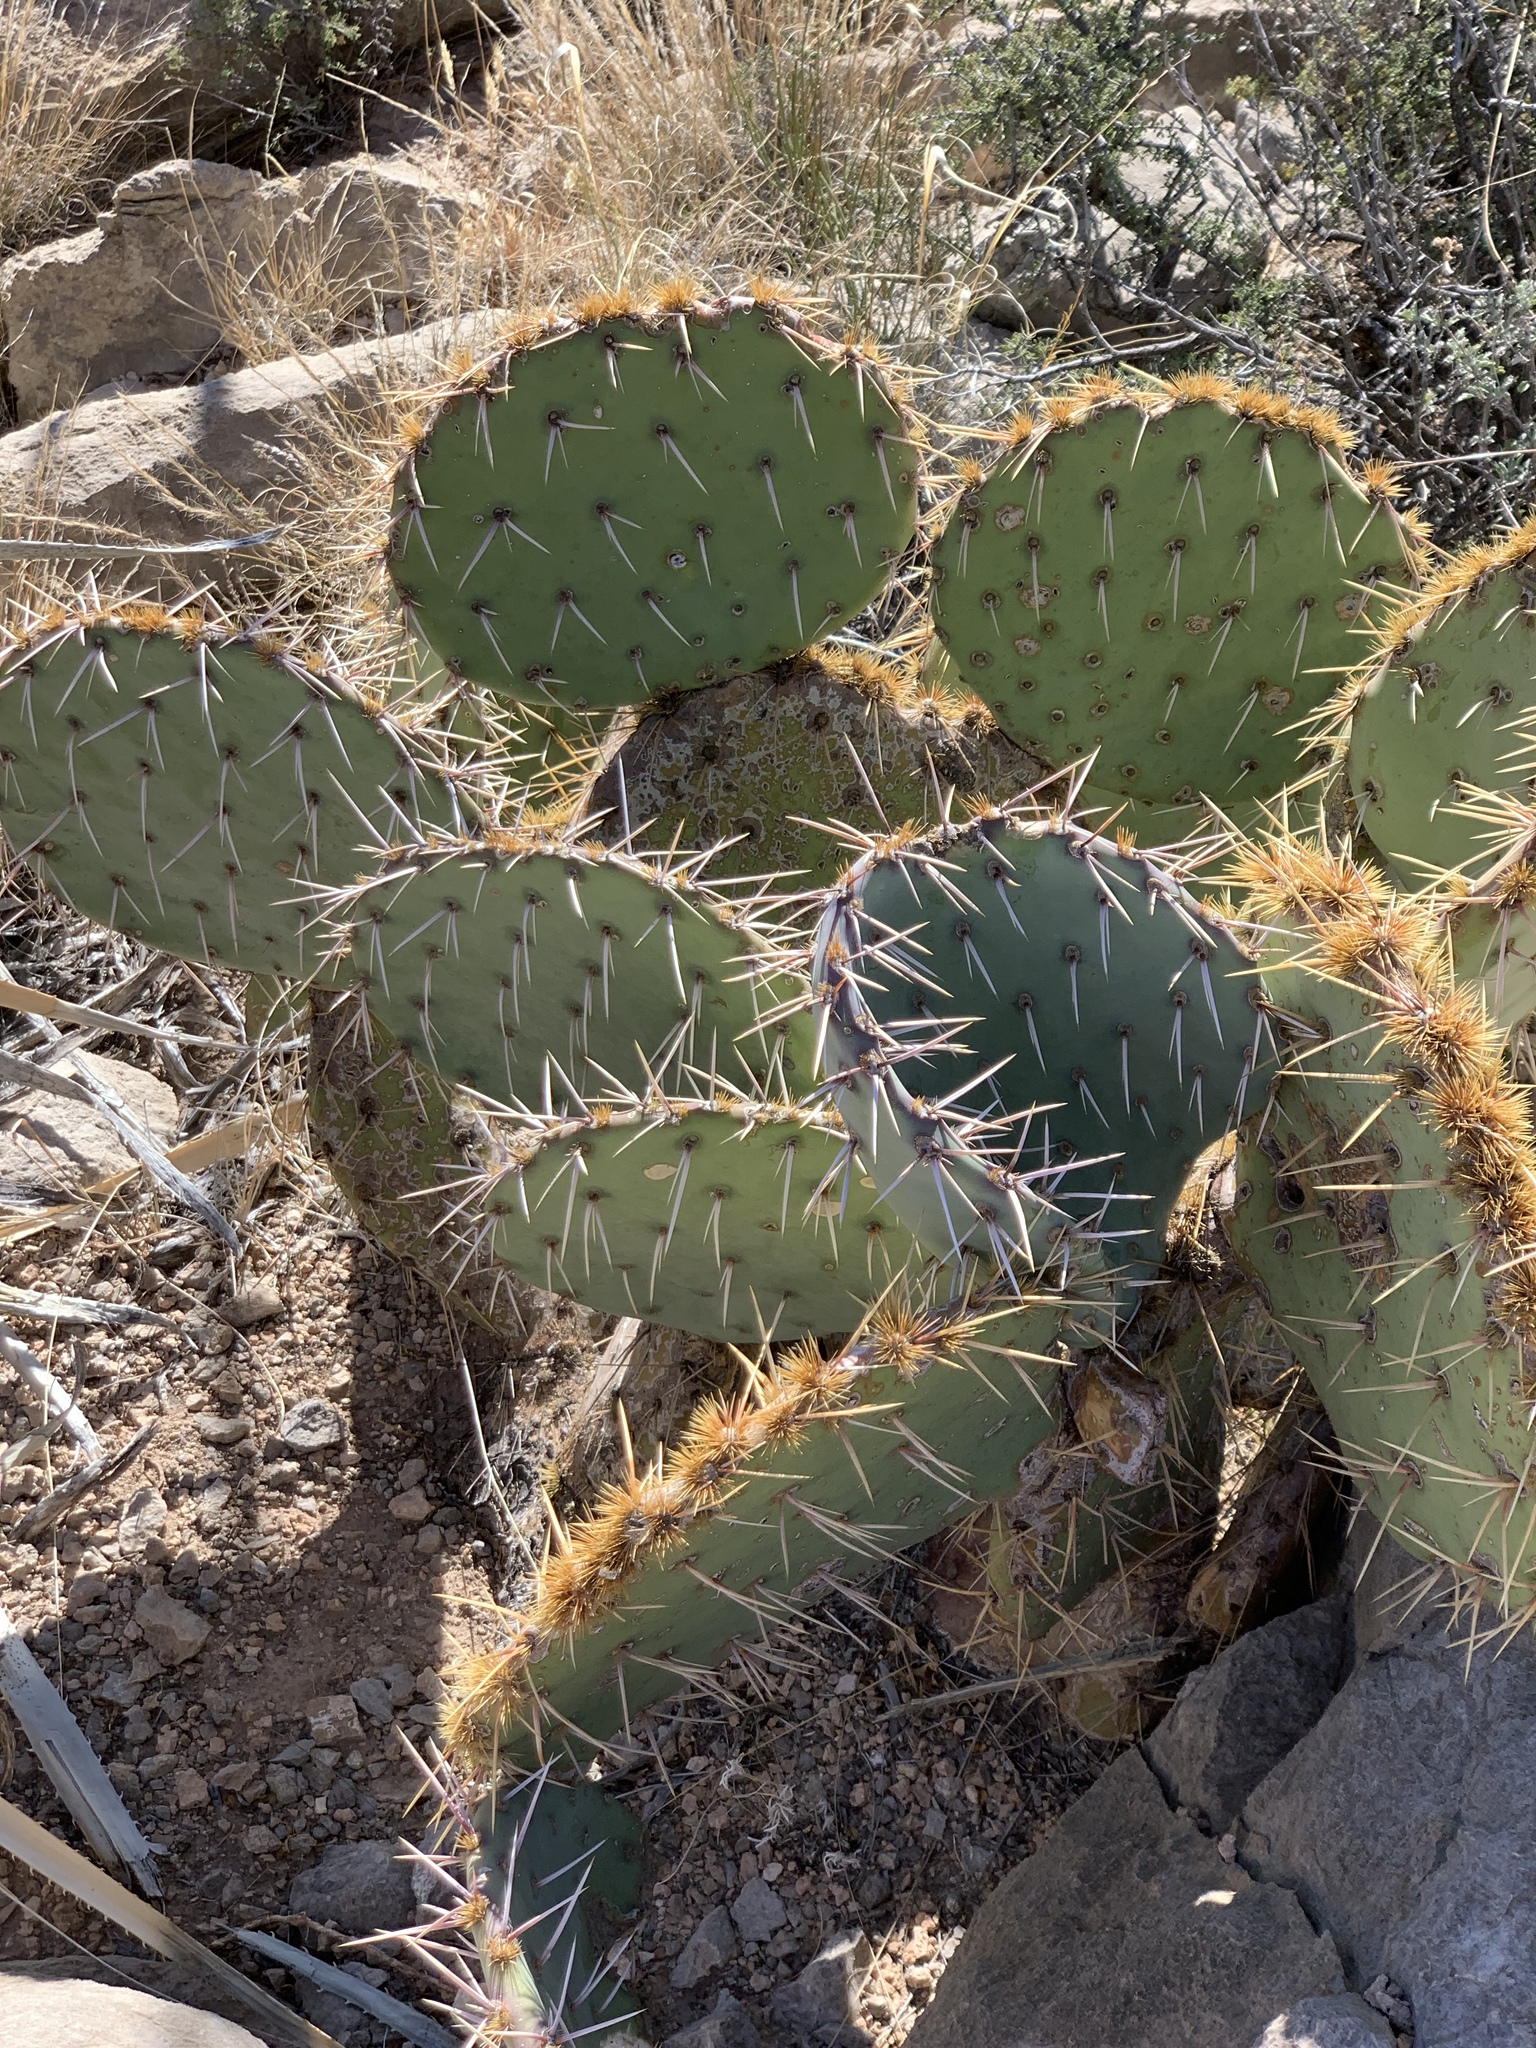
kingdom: Plantae
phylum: Tracheophyta
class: Magnoliopsida
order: Caryophyllales
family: Cactaceae
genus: Opuntia
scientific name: Opuntia orbiculata
